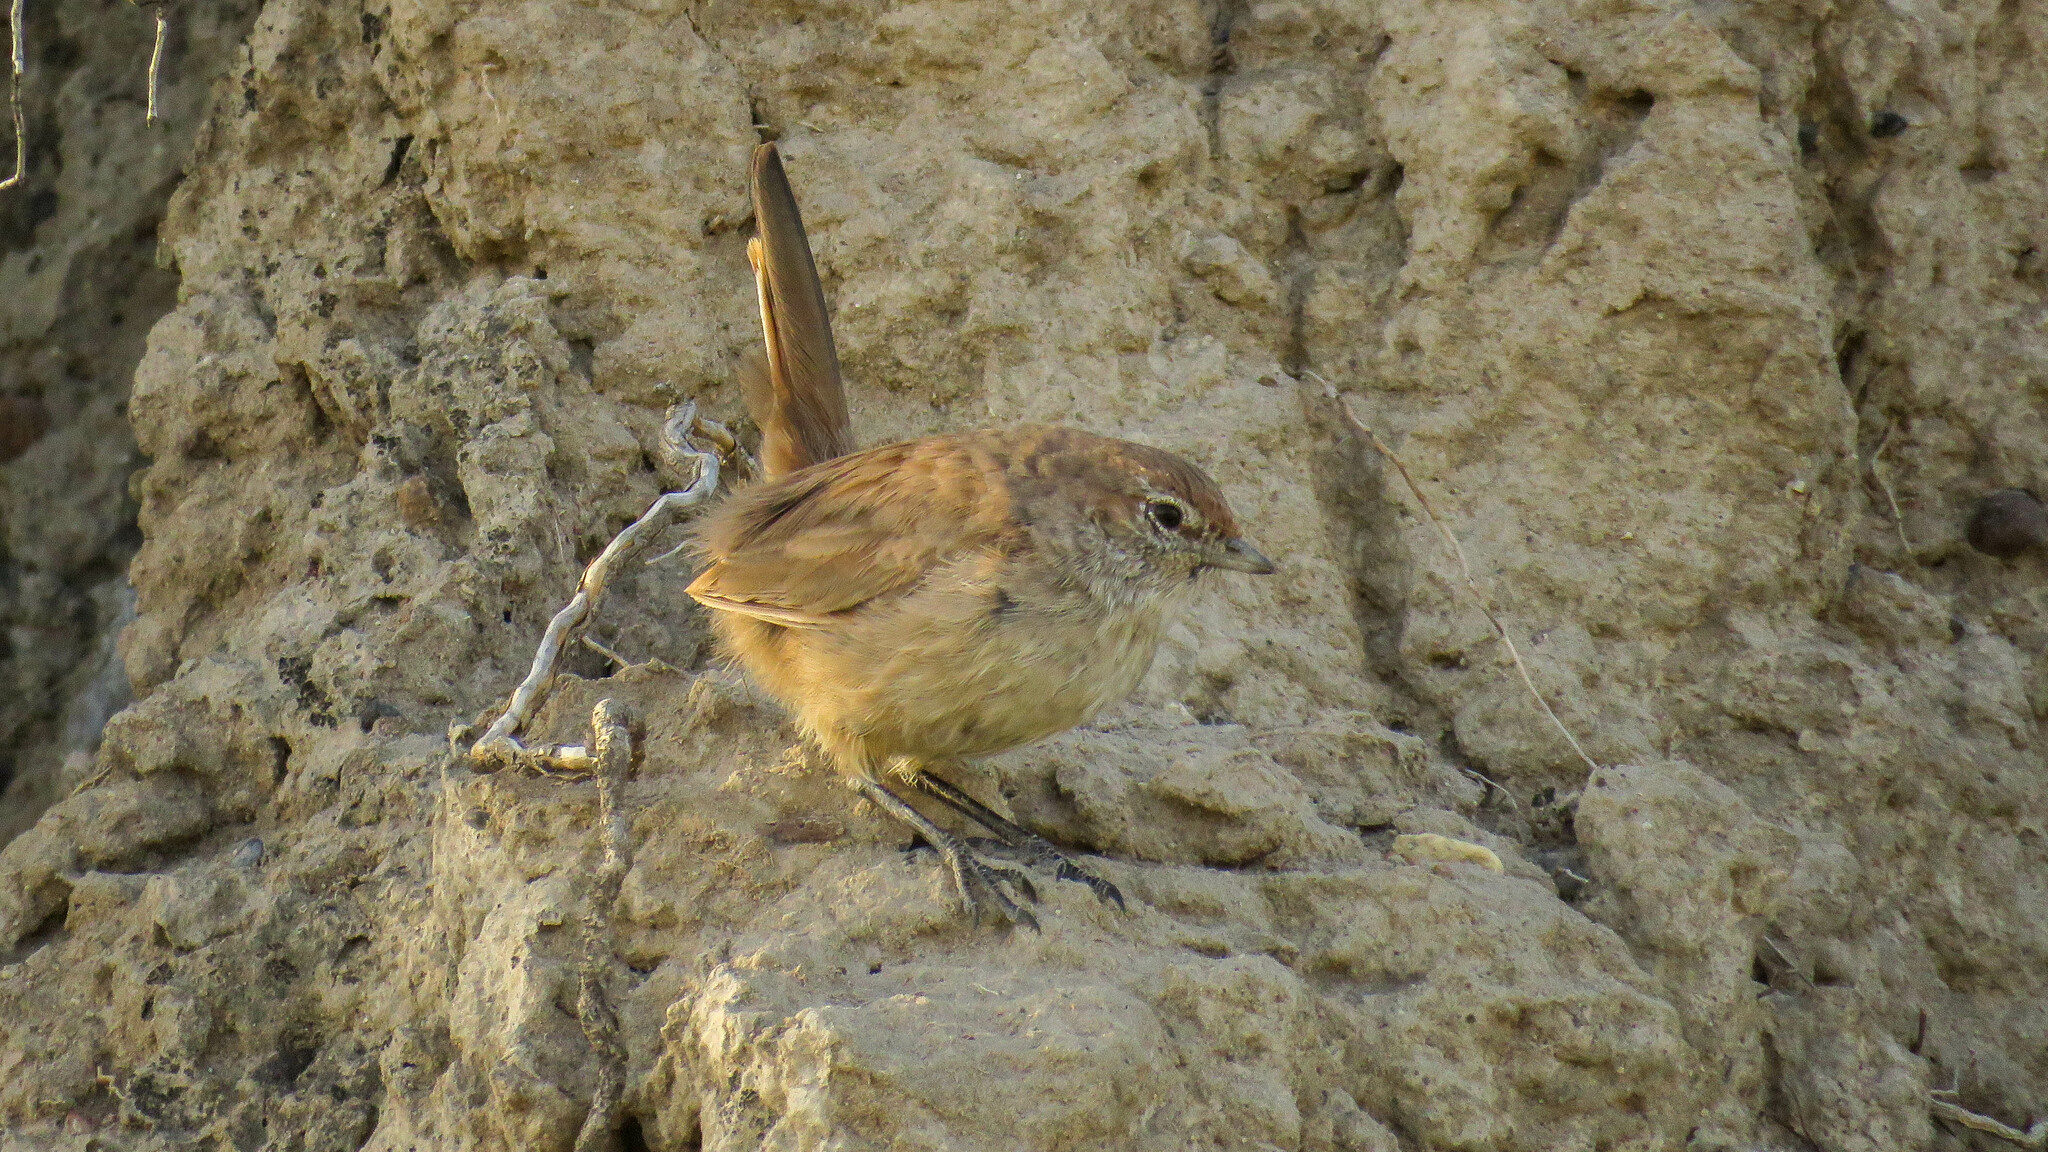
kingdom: Animalia
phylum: Chordata
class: Aves
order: Passeriformes
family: Rhinocryptidae
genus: Teledromas
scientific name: Teledromas fuscus
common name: Sandy gallito
